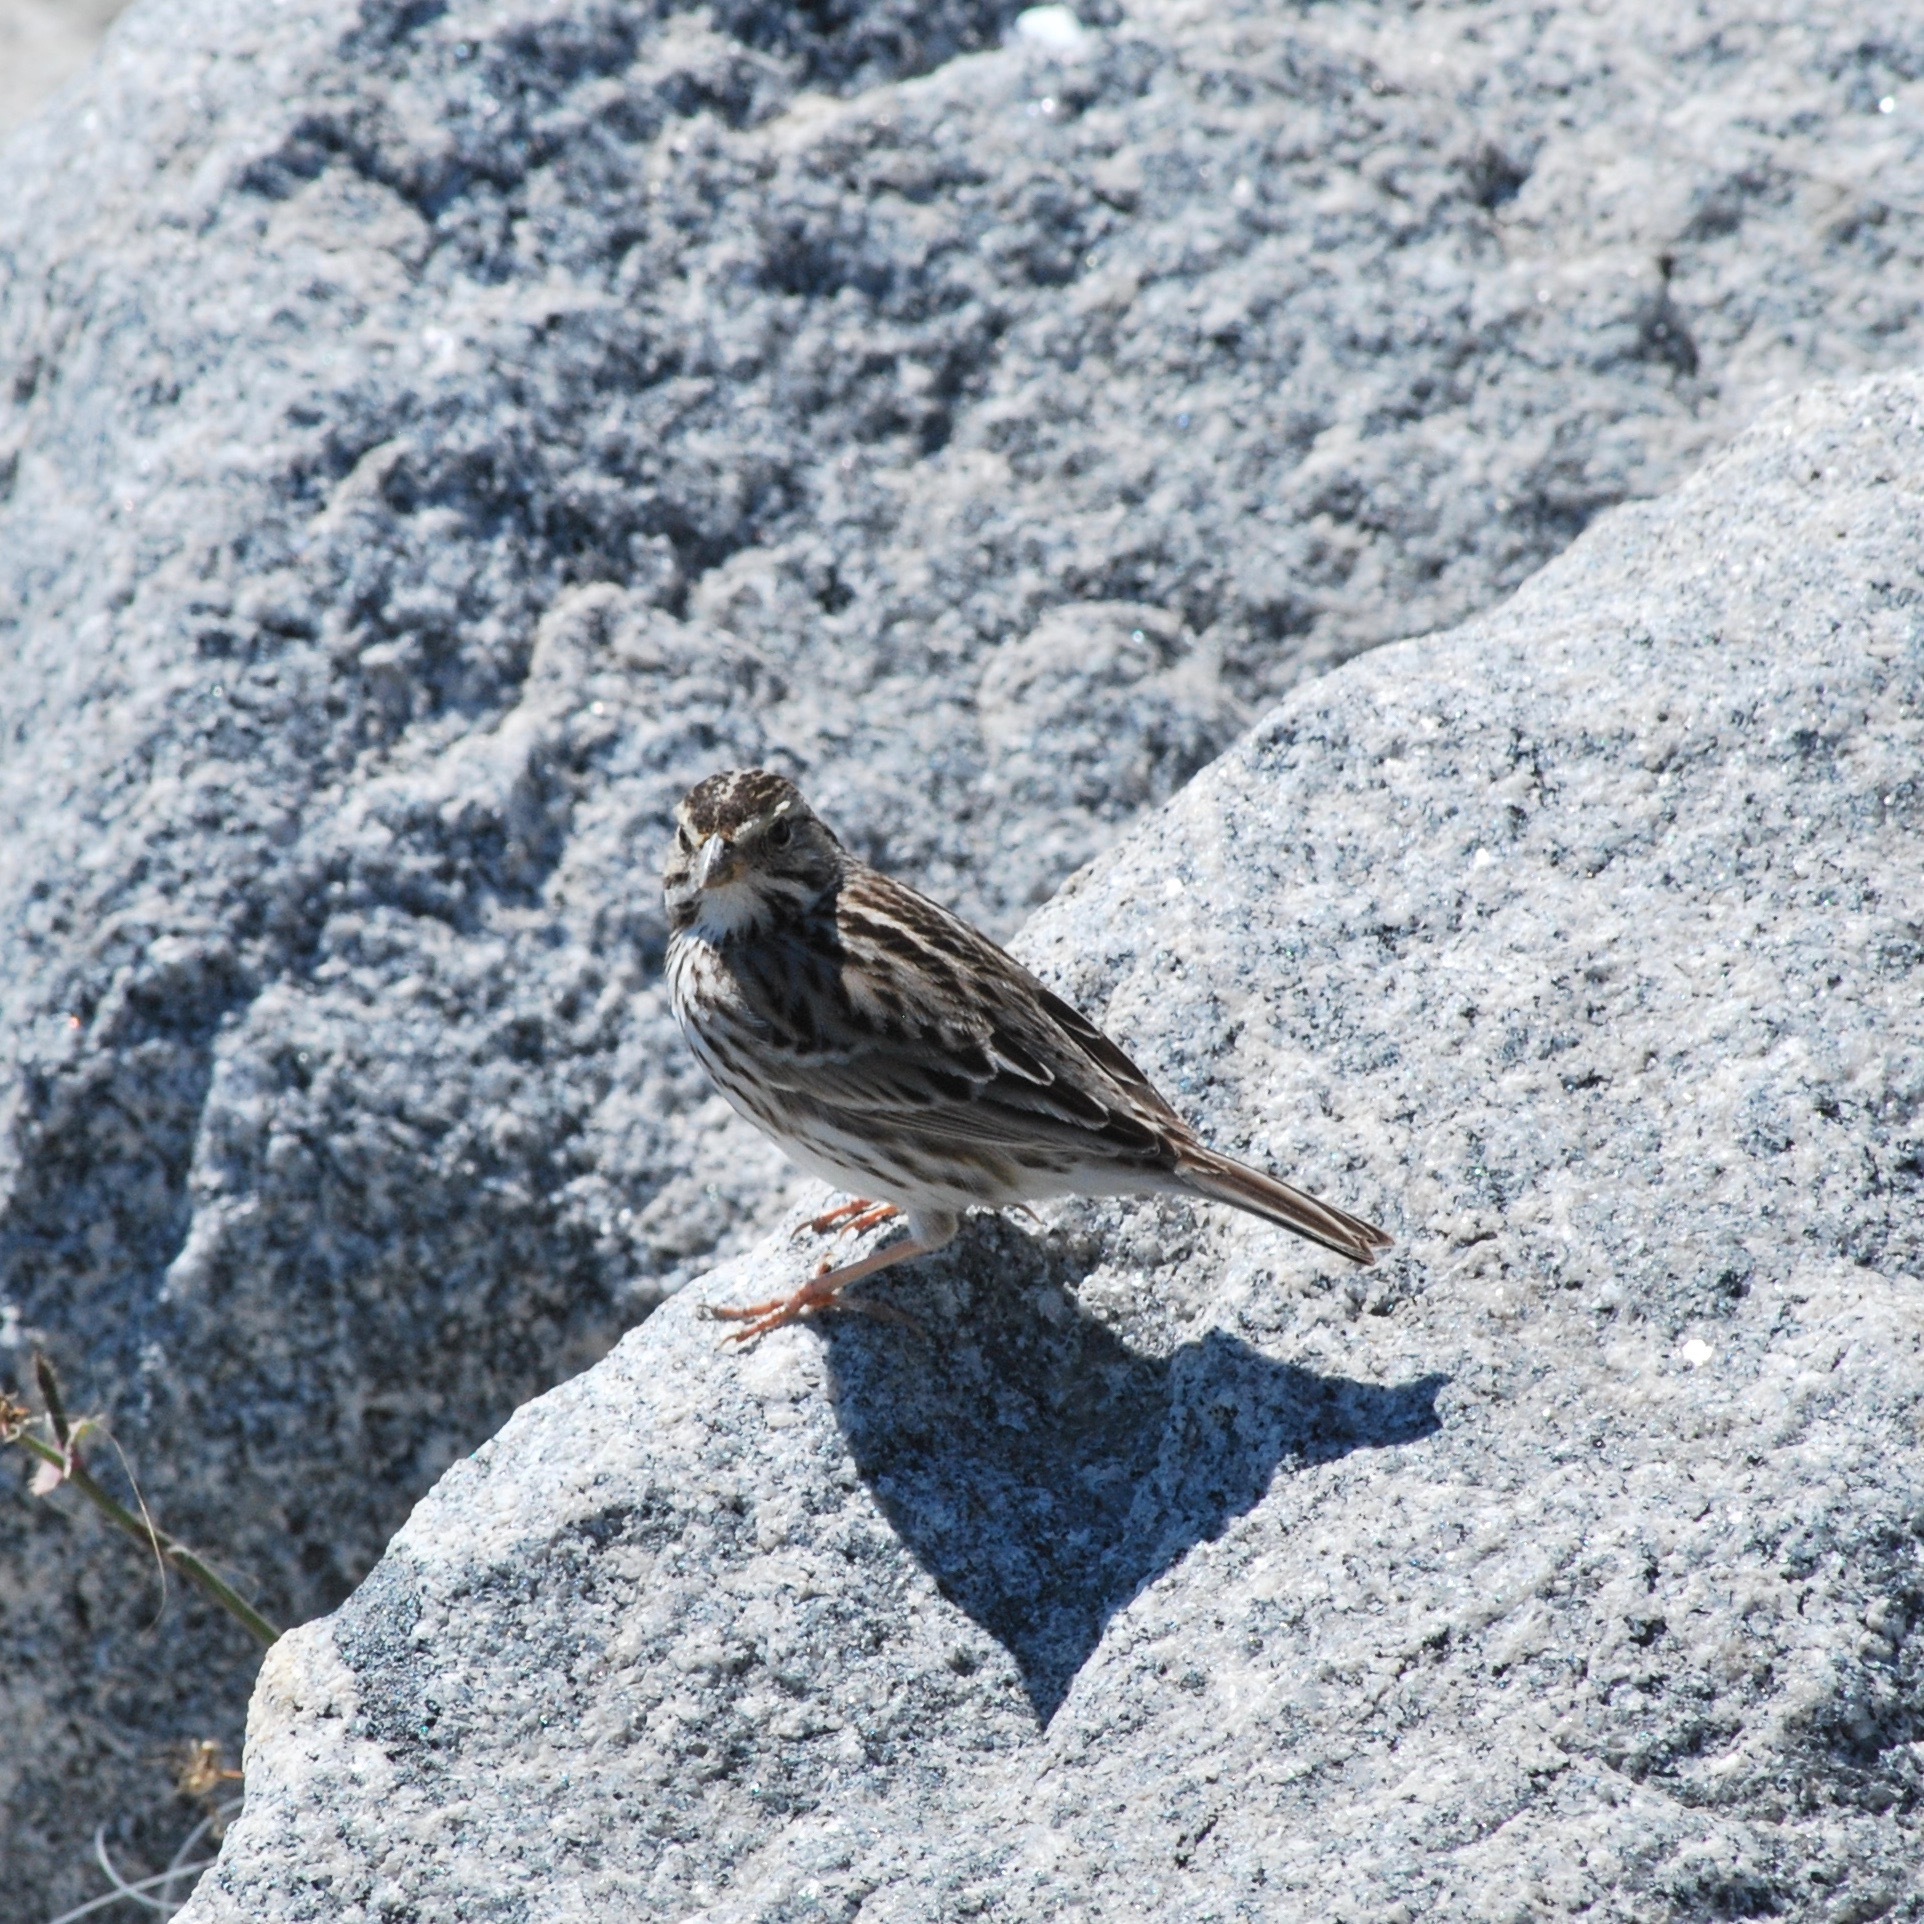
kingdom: Animalia
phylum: Chordata
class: Aves
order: Passeriformes
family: Passerellidae
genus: Passerculus
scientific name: Passerculus sandwichensis
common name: Savannah sparrow
